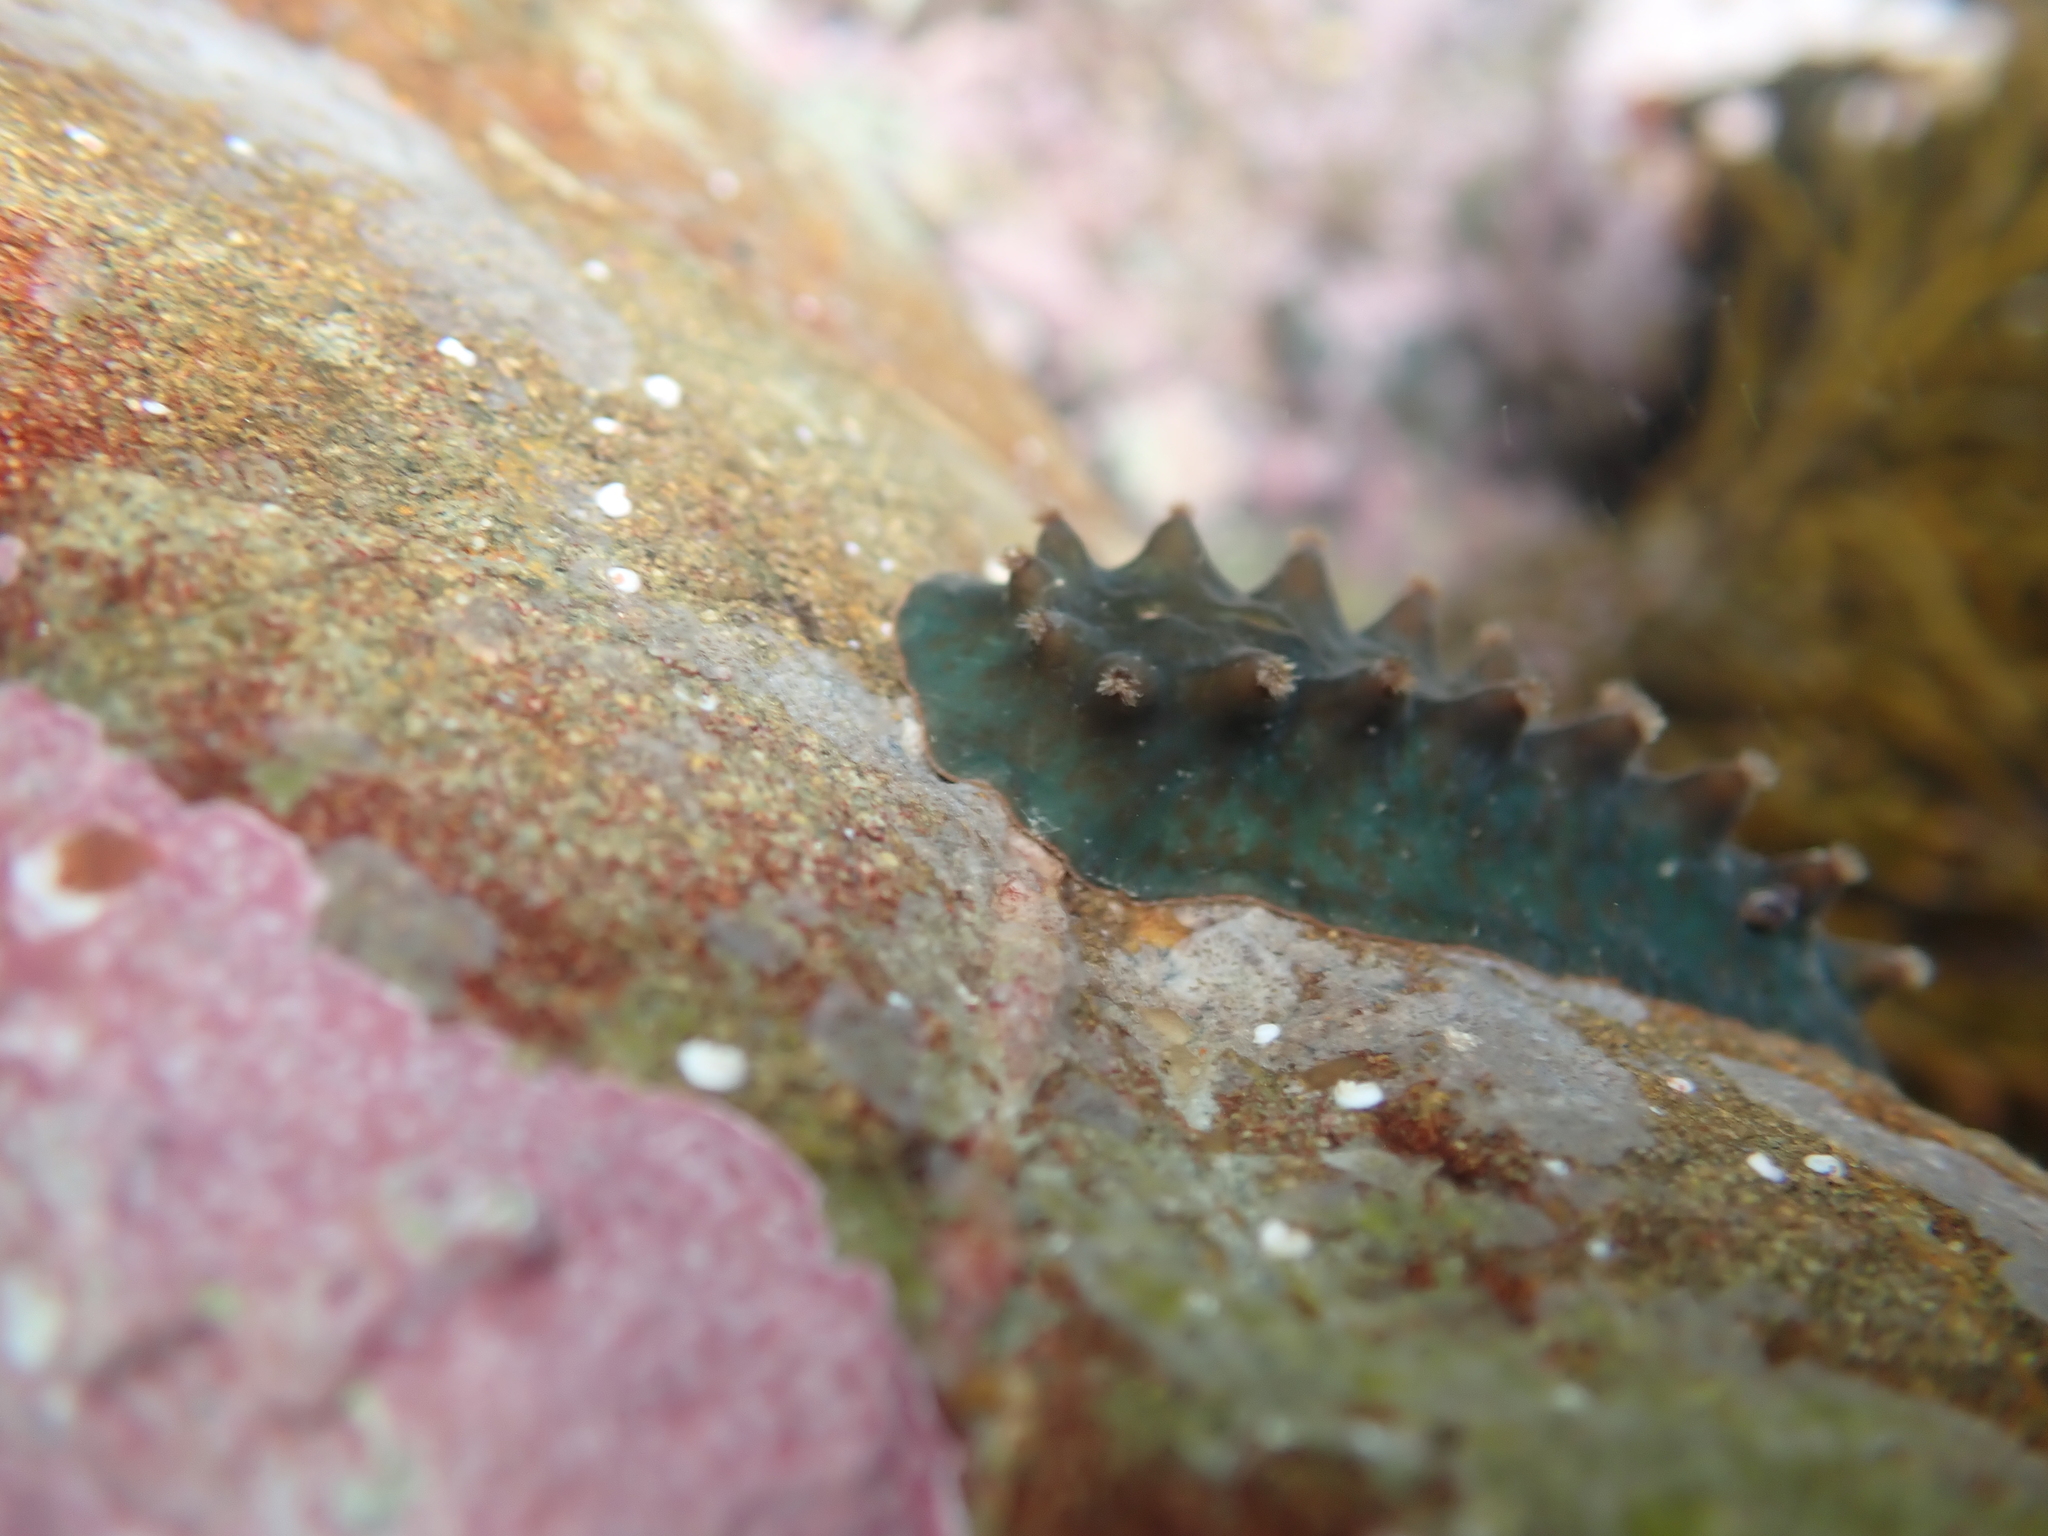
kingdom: Animalia
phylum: Mollusca
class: Gastropoda
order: Littorinimorpha
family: Eatoniellidae
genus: Eatoniella
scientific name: Eatoniella limbata
